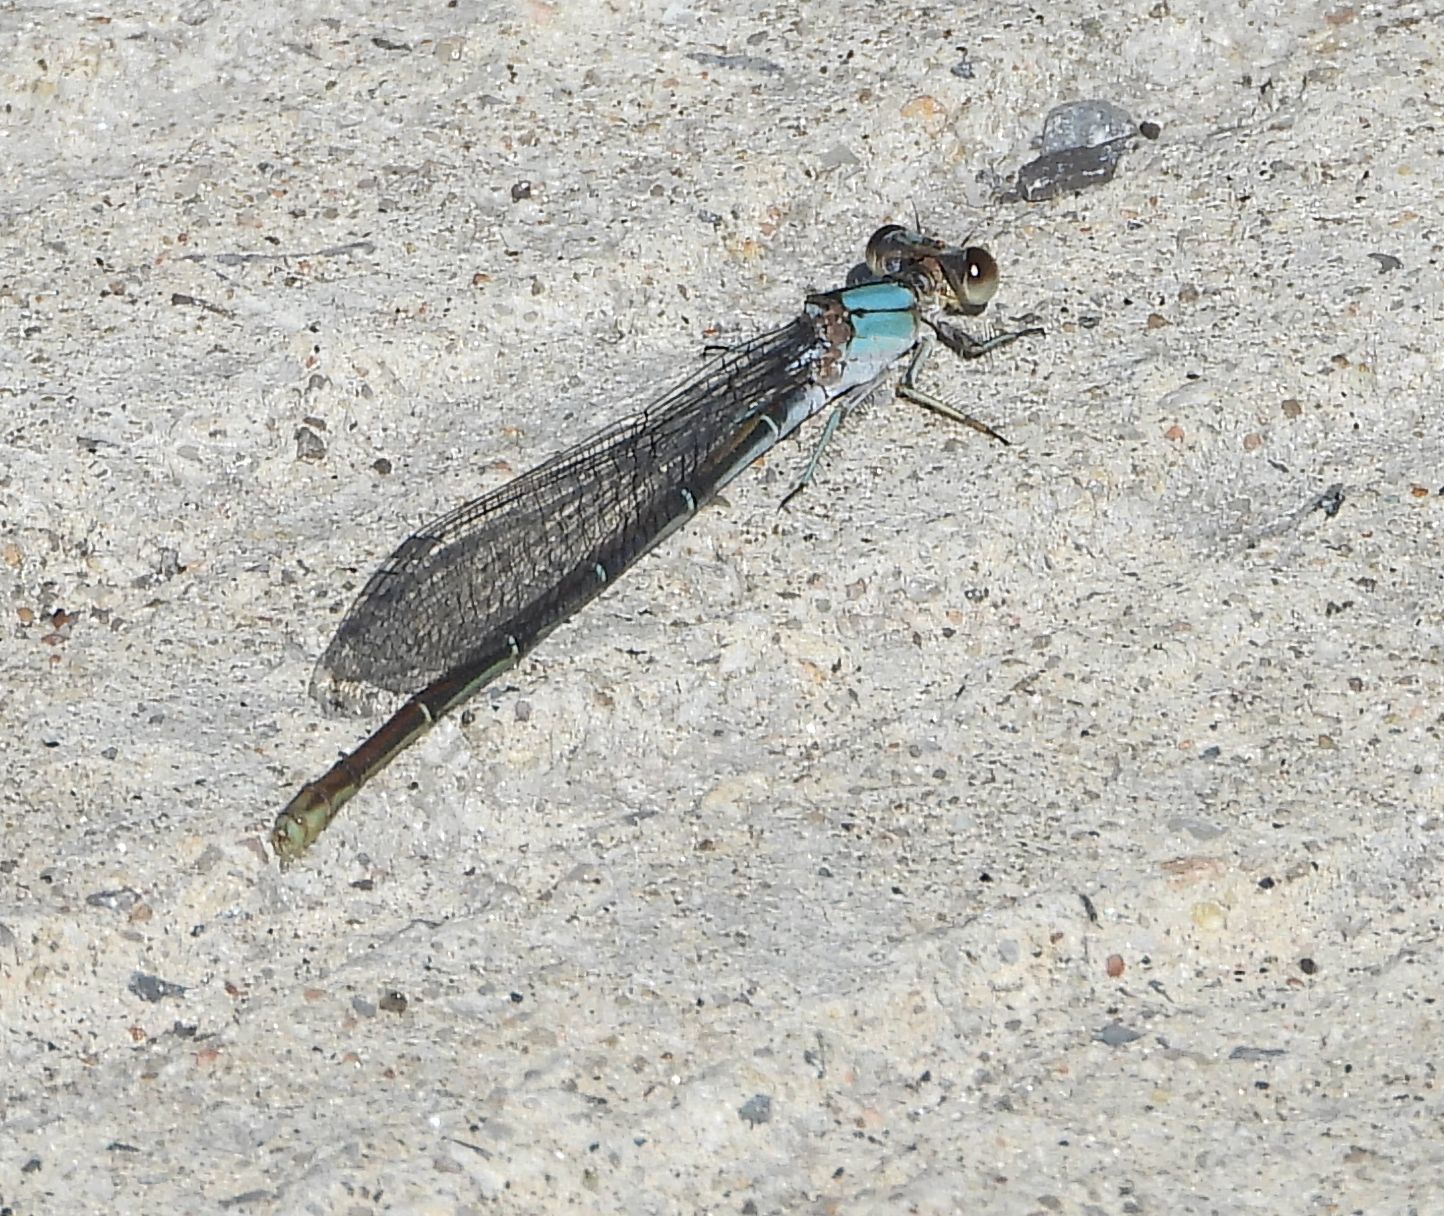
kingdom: Animalia
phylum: Arthropoda
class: Insecta
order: Odonata
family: Coenagrionidae
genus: Argia
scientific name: Argia moesta
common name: Powdered dancer
